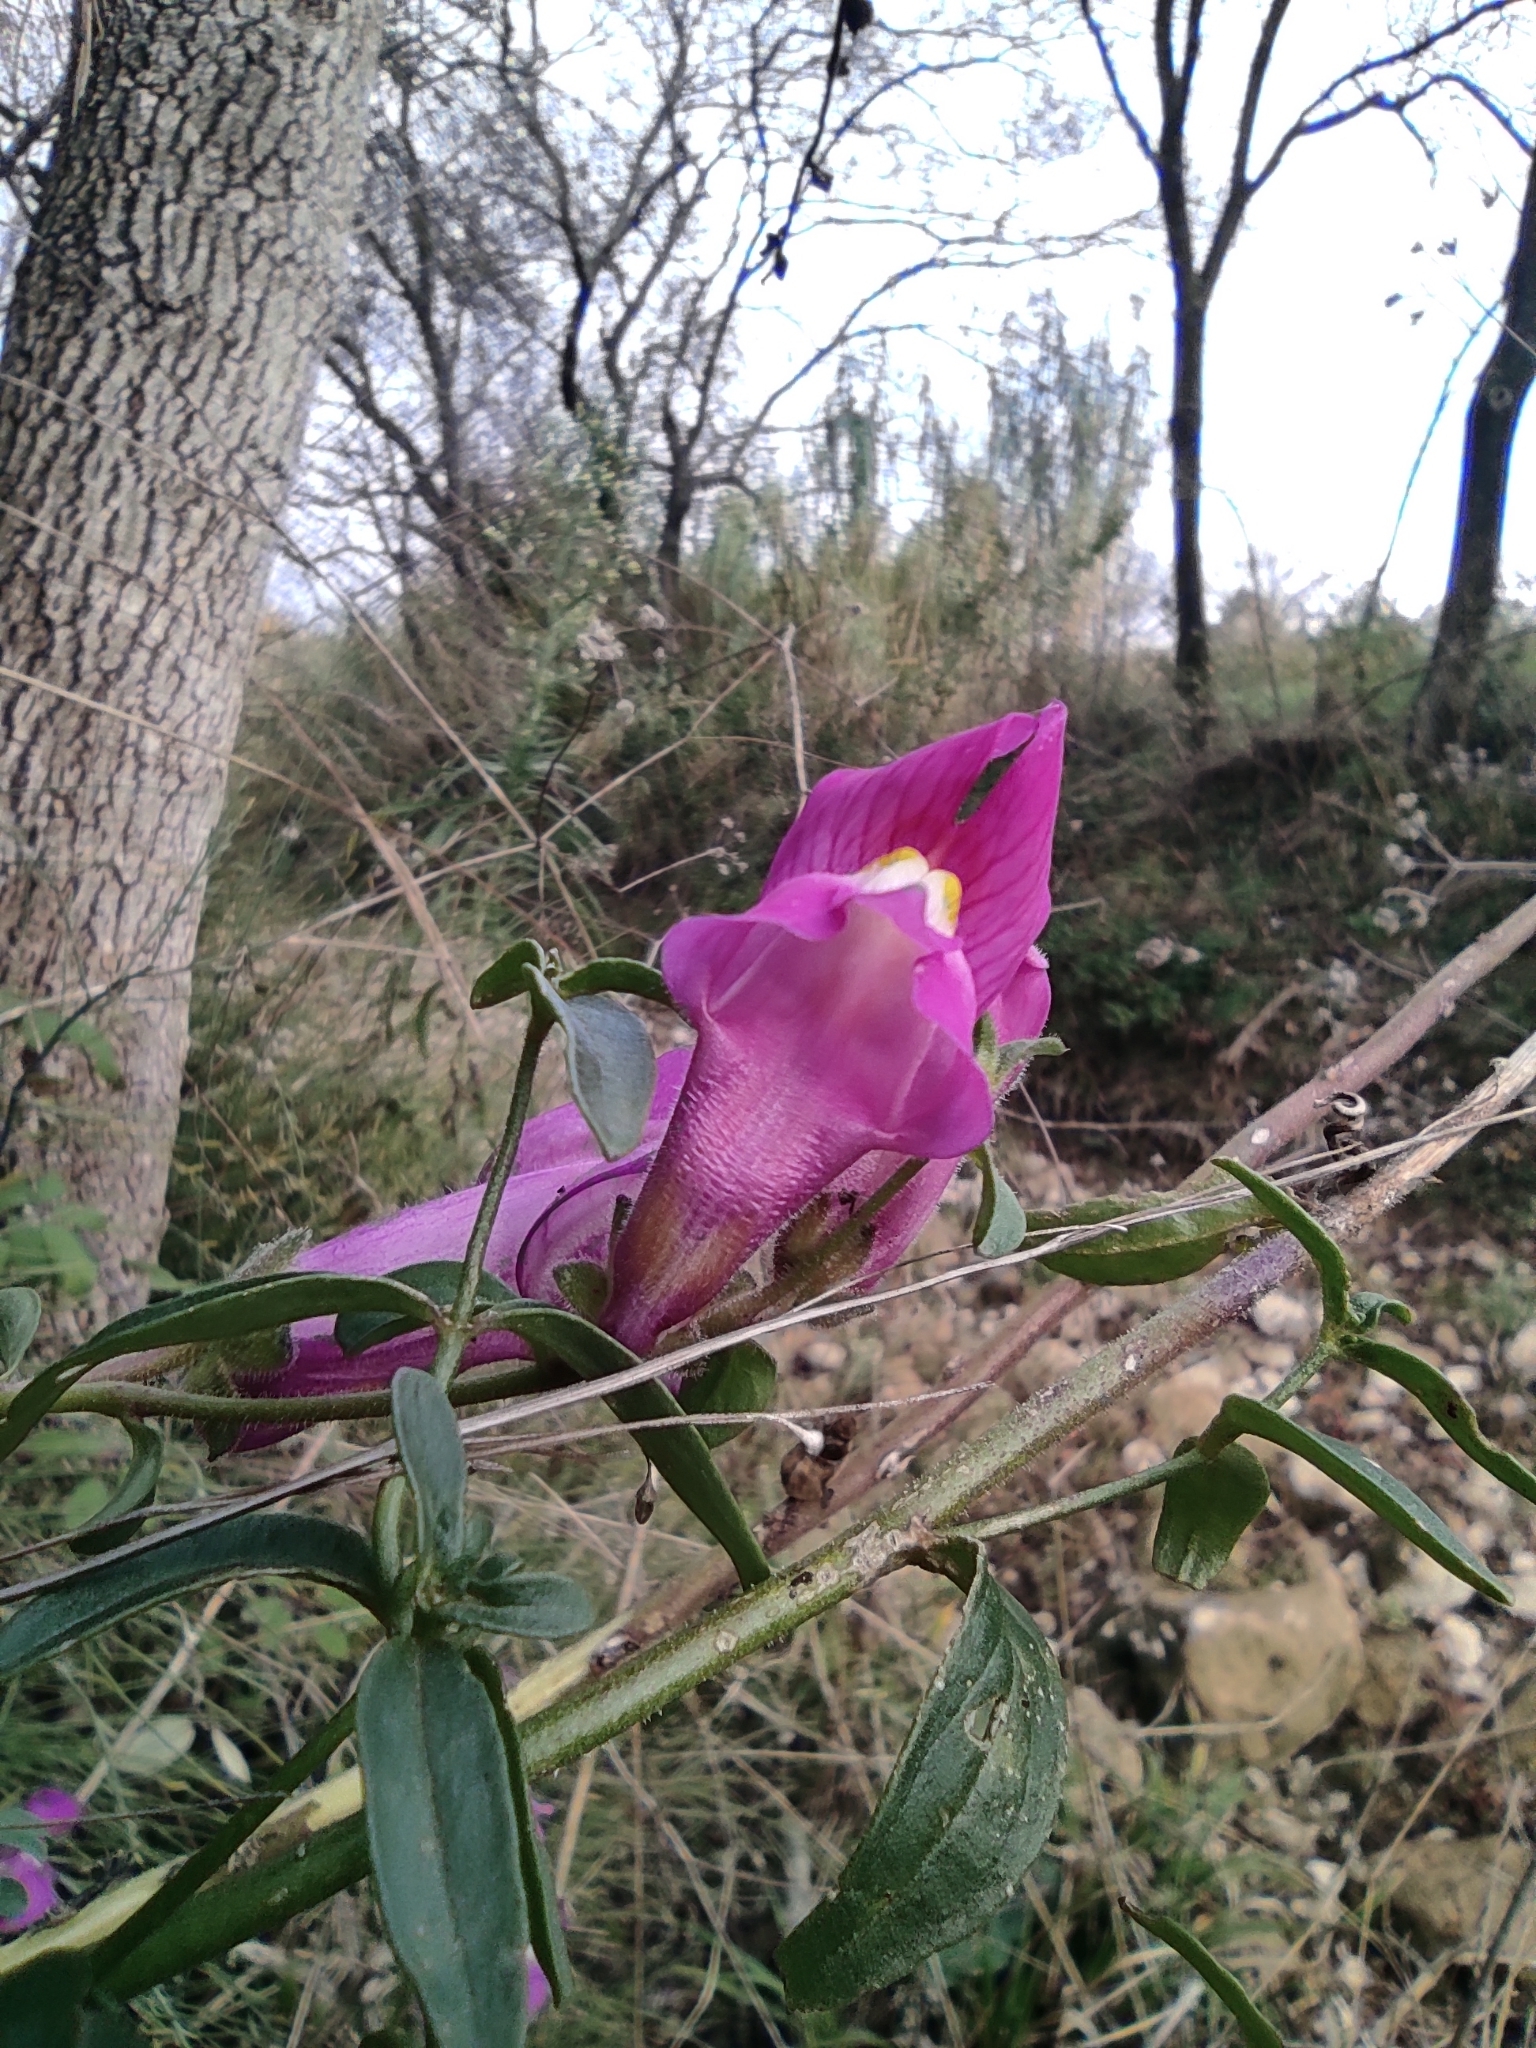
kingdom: Plantae
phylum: Tracheophyta
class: Magnoliopsida
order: Lamiales
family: Plantaginaceae
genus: Antirrhinum
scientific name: Antirrhinum majus
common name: Snapdragon
